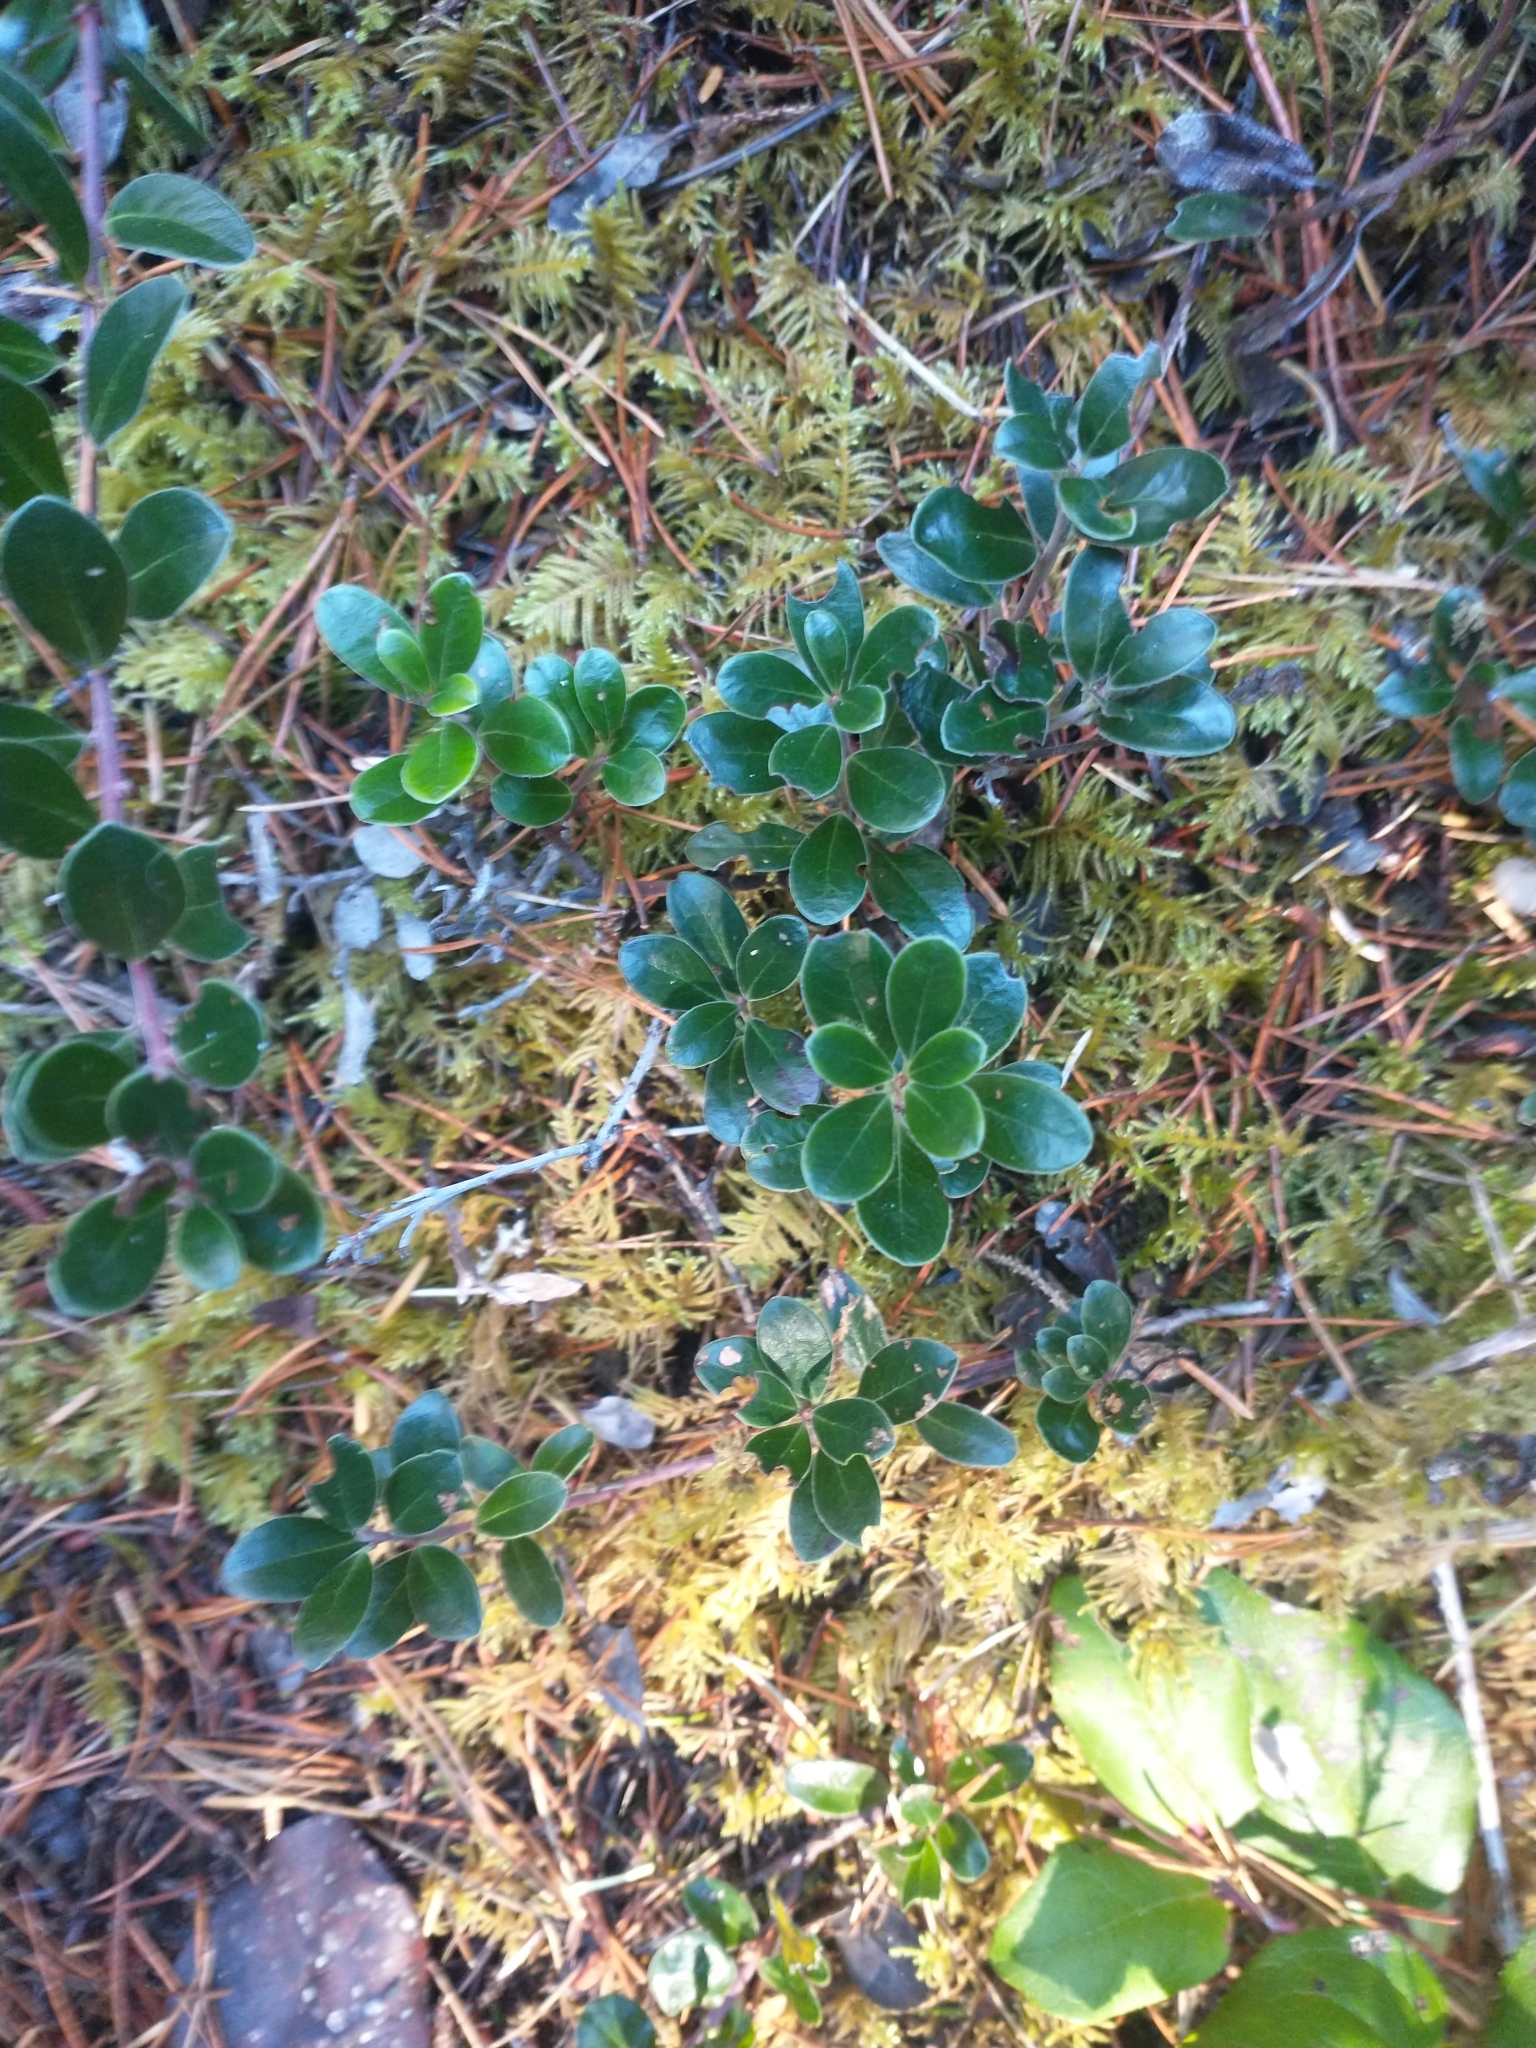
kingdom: Plantae
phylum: Tracheophyta
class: Magnoliopsida
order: Ericales
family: Ericaceae
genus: Arctostaphylos
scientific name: Arctostaphylos uva-ursi
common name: Bearberry
